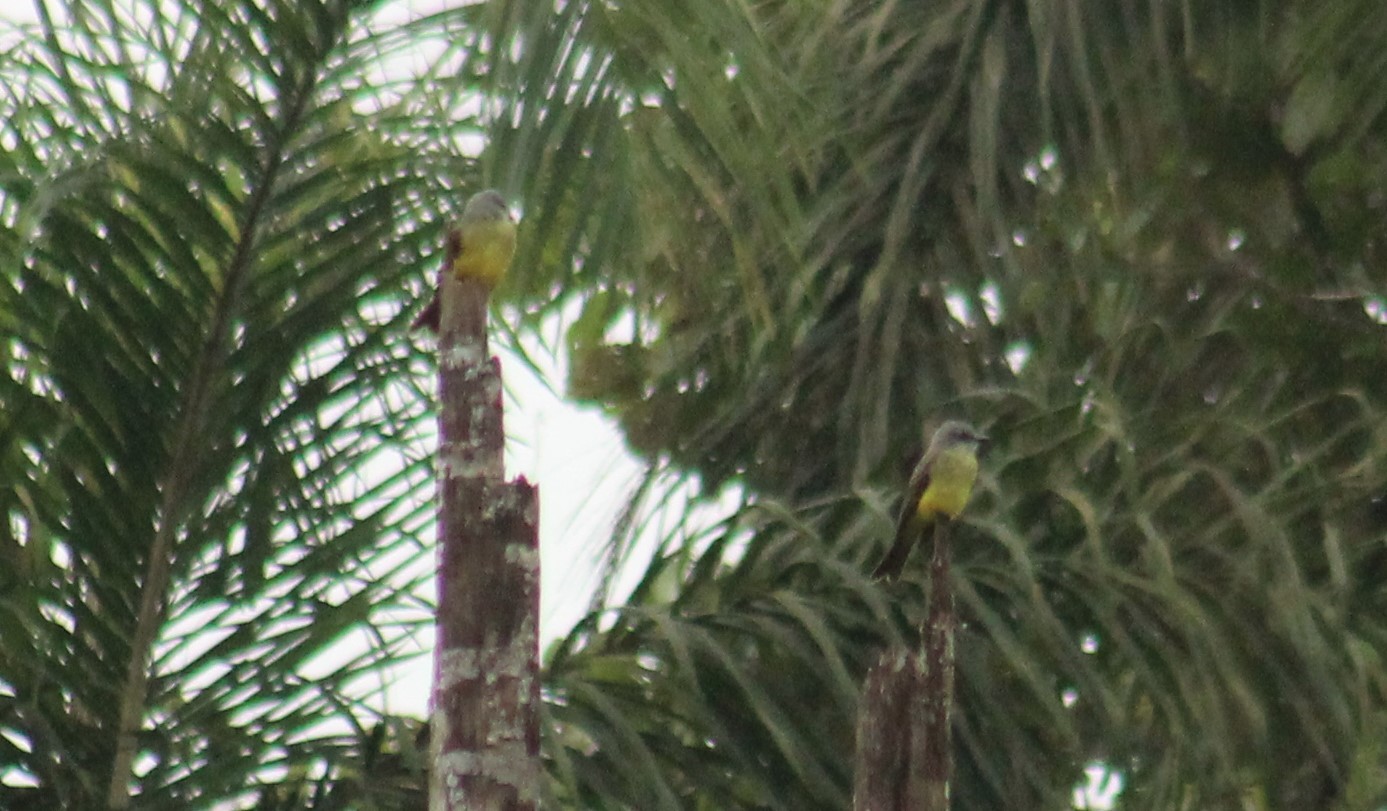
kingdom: Animalia
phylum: Chordata
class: Aves
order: Passeriformes
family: Tyrannidae
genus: Tyrannus
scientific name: Tyrannus melancholicus
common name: Tropical kingbird
